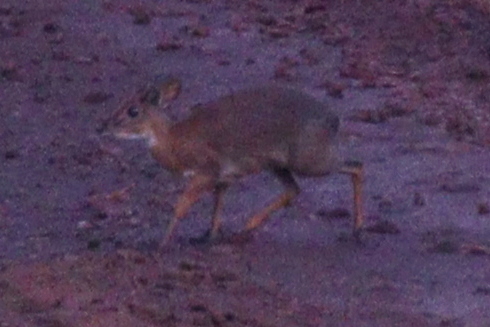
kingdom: Animalia
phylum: Chordata
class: Mammalia
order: Artiodactyla
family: Bovidae
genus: Neotragus
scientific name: Neotragus moschatus
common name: Suni
